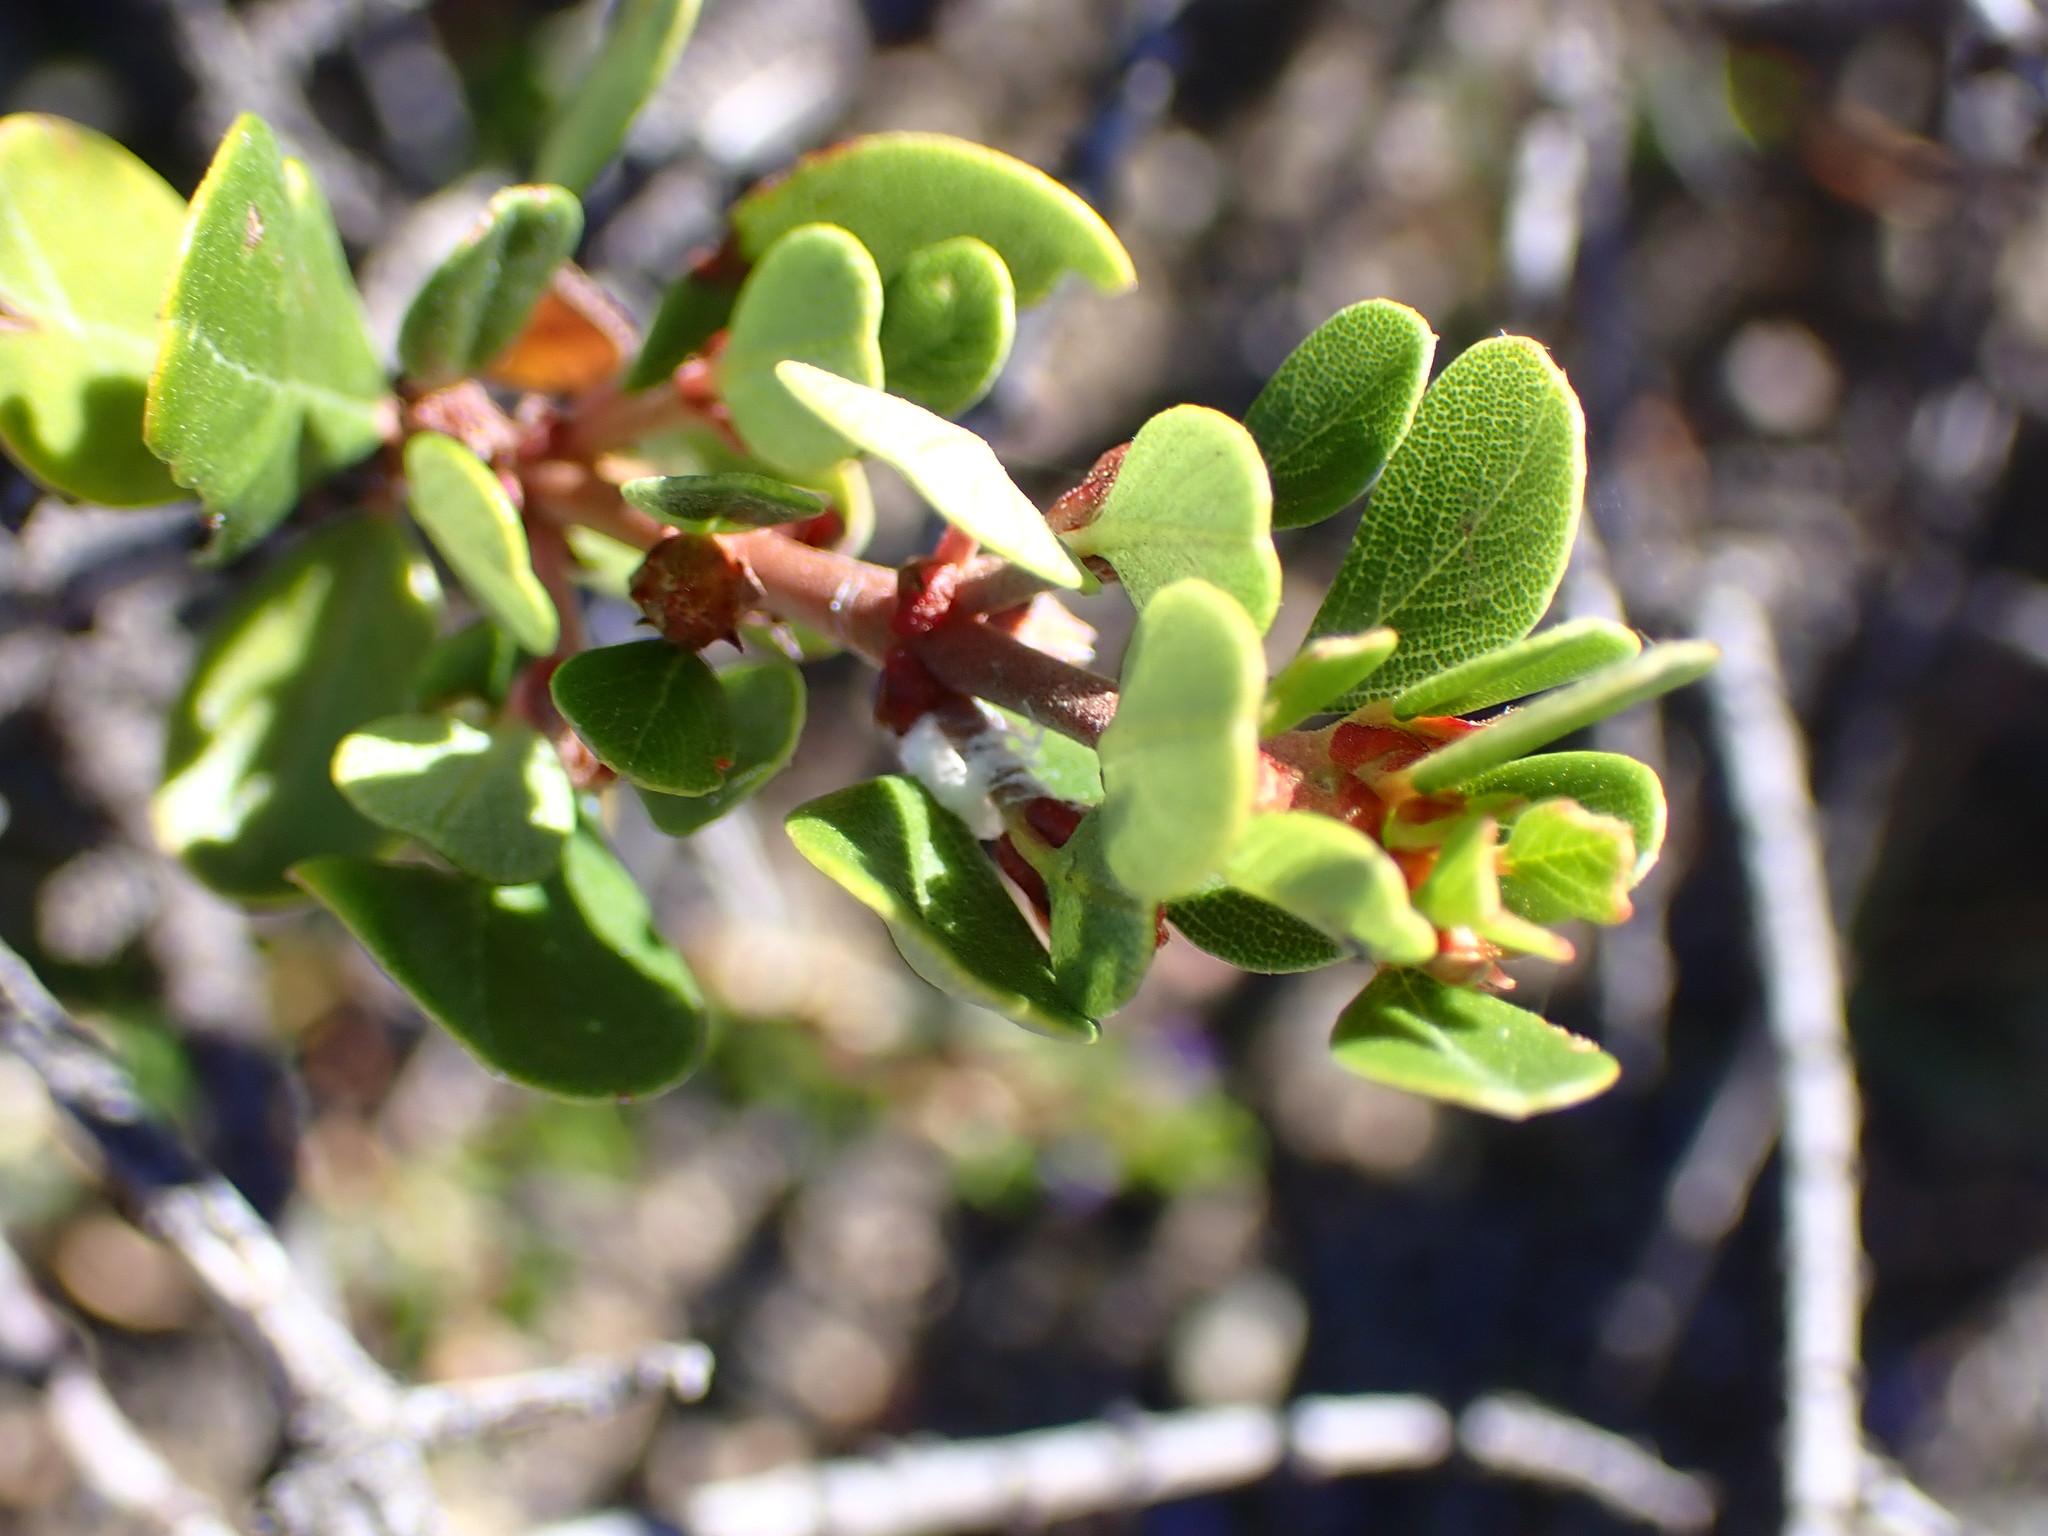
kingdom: Plantae
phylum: Tracheophyta
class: Magnoliopsida
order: Rosales
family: Rhamnaceae
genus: Ceanothus
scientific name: Ceanothus cuneatus
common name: Cuneate ceanothus
